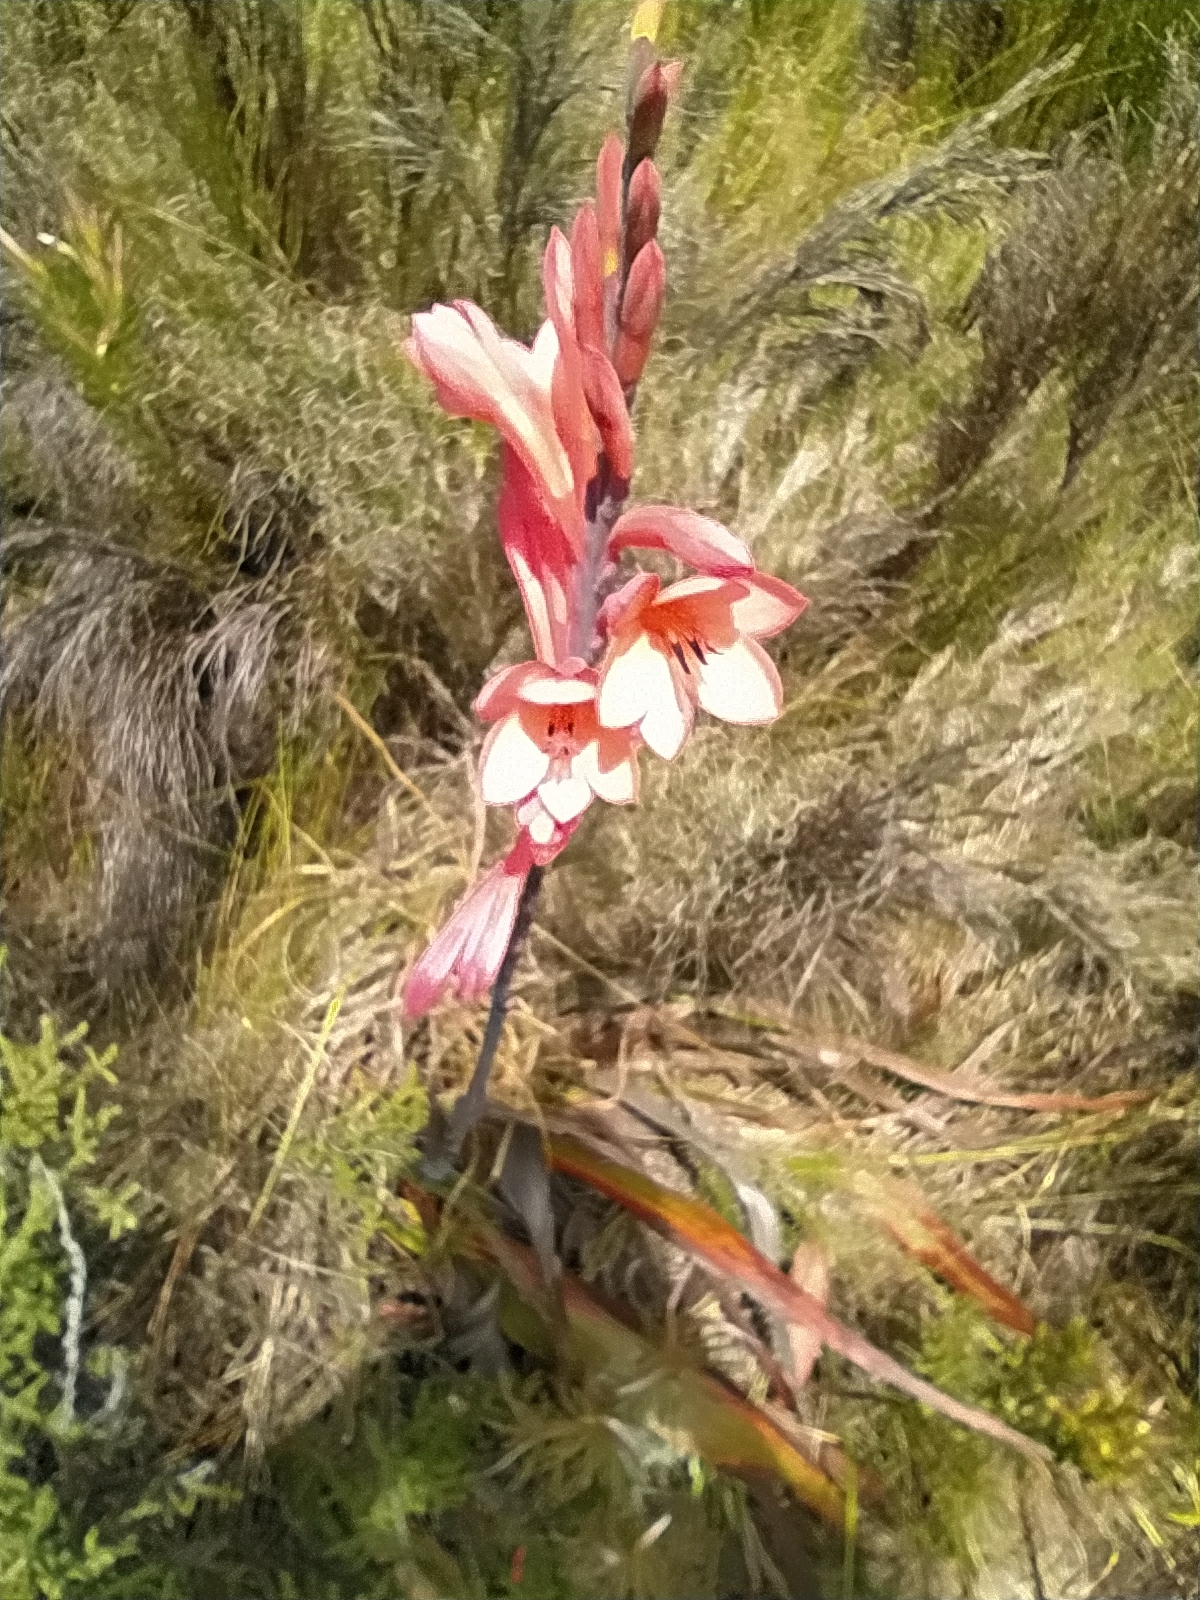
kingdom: Plantae
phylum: Tracheophyta
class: Liliopsida
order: Asparagales
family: Iridaceae
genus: Watsonia
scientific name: Watsonia tabularis
